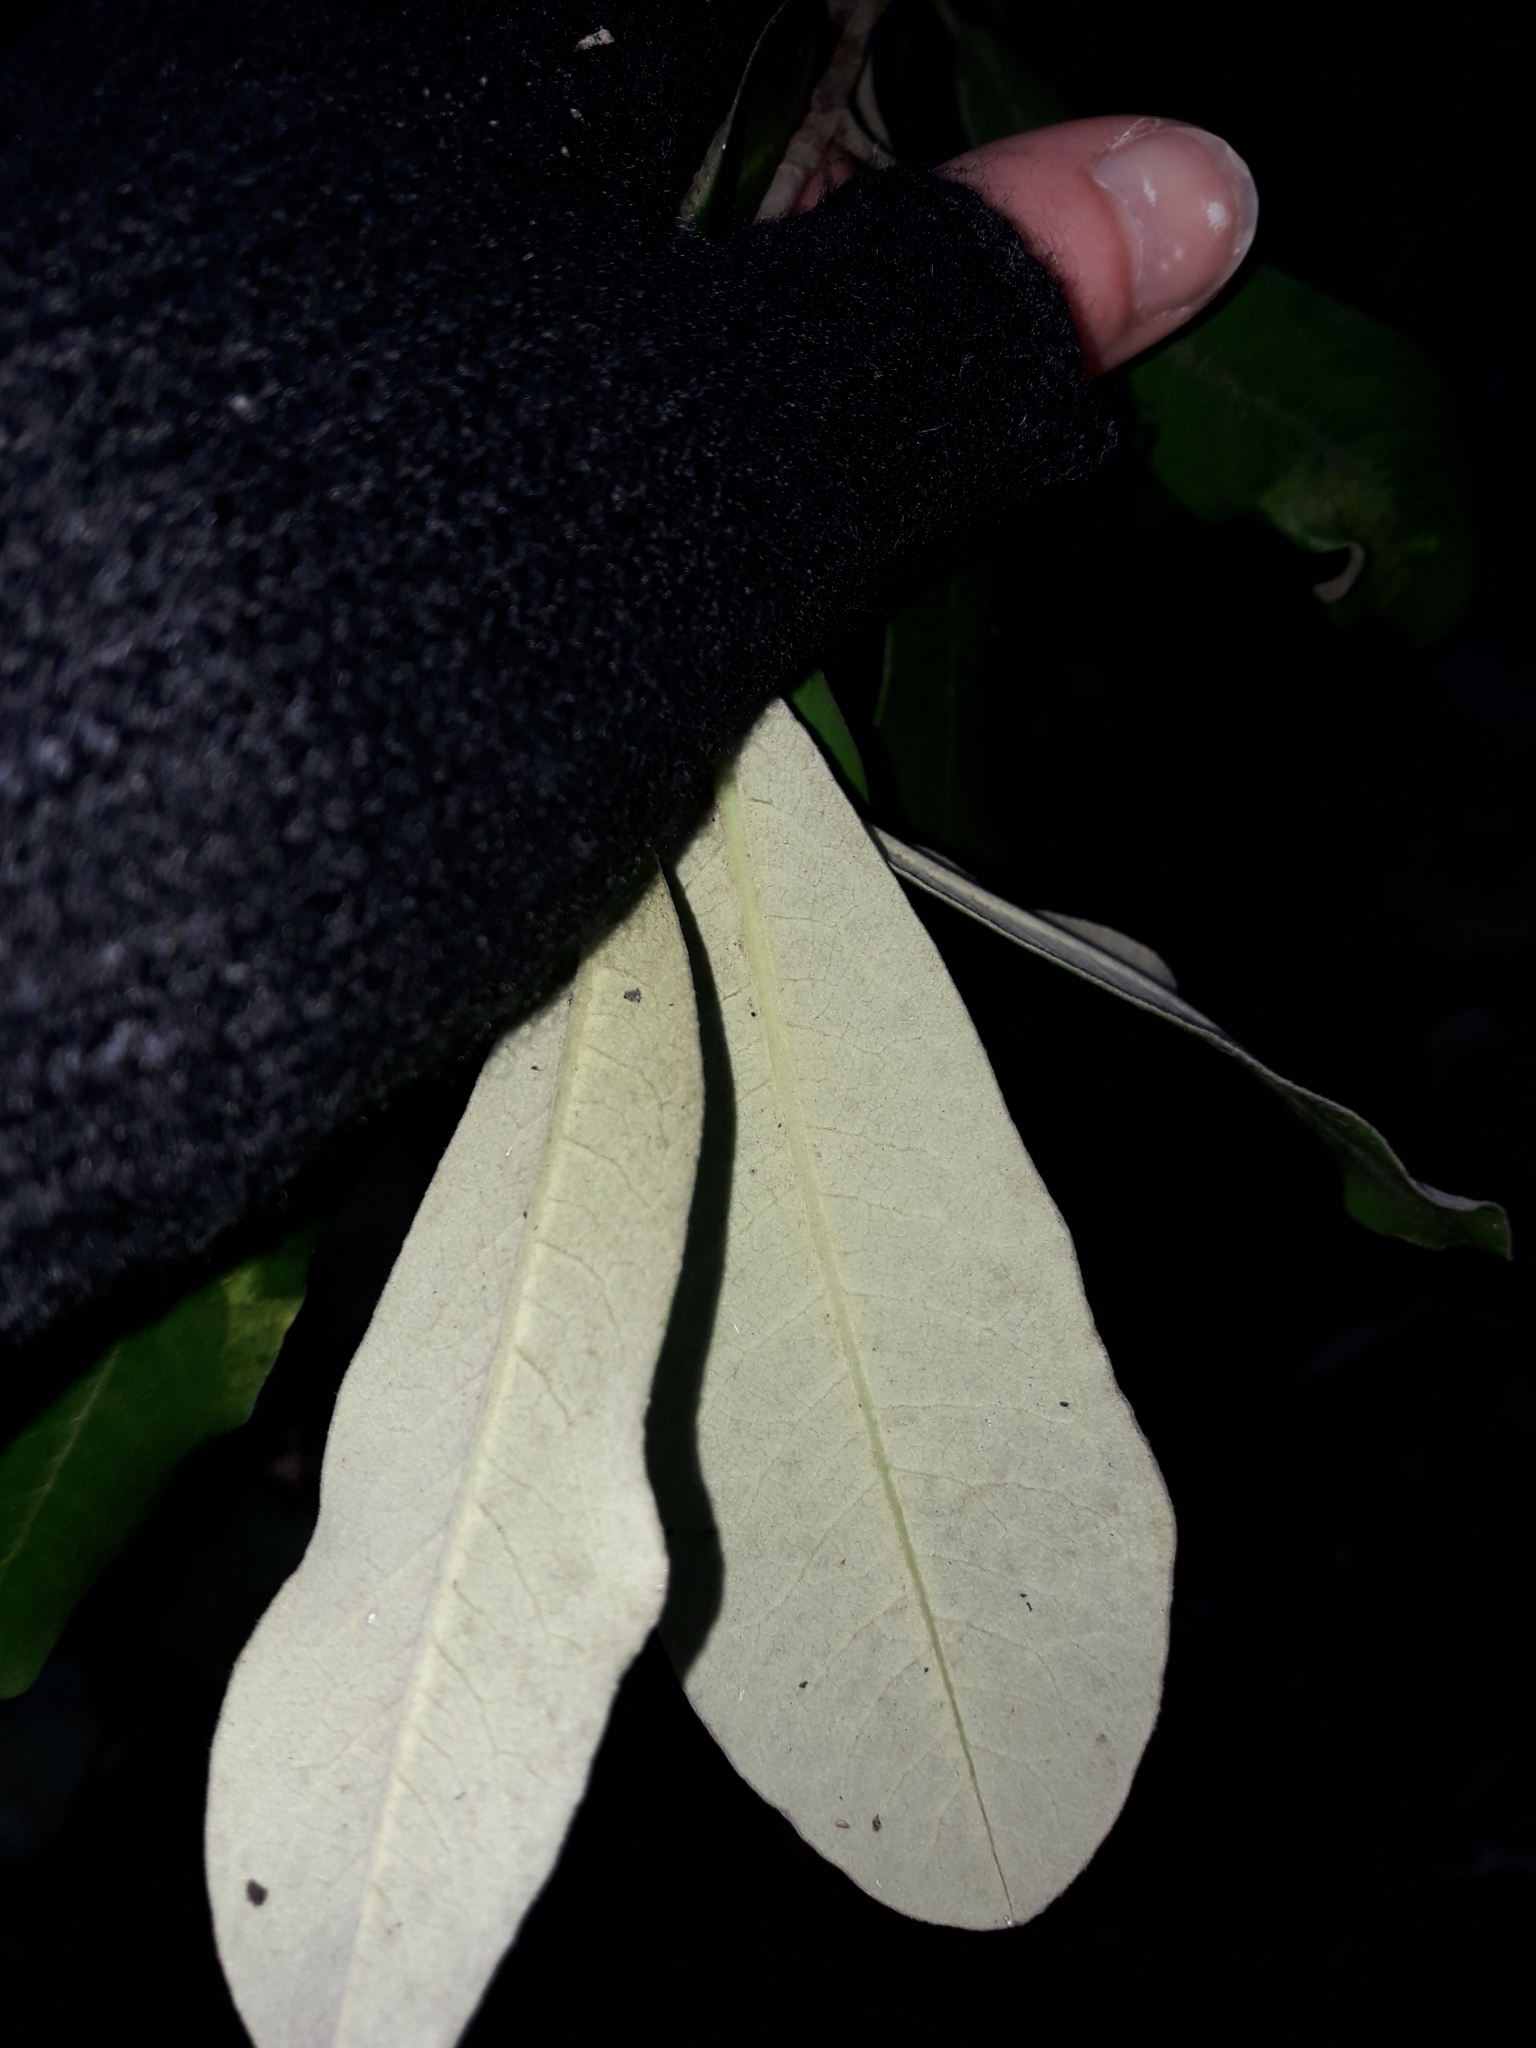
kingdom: Plantae
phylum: Tracheophyta
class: Magnoliopsida
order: Apiales
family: Pittosporaceae
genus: Pittosporum
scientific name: Pittosporum ralphii
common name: Ralph's desertwillow
